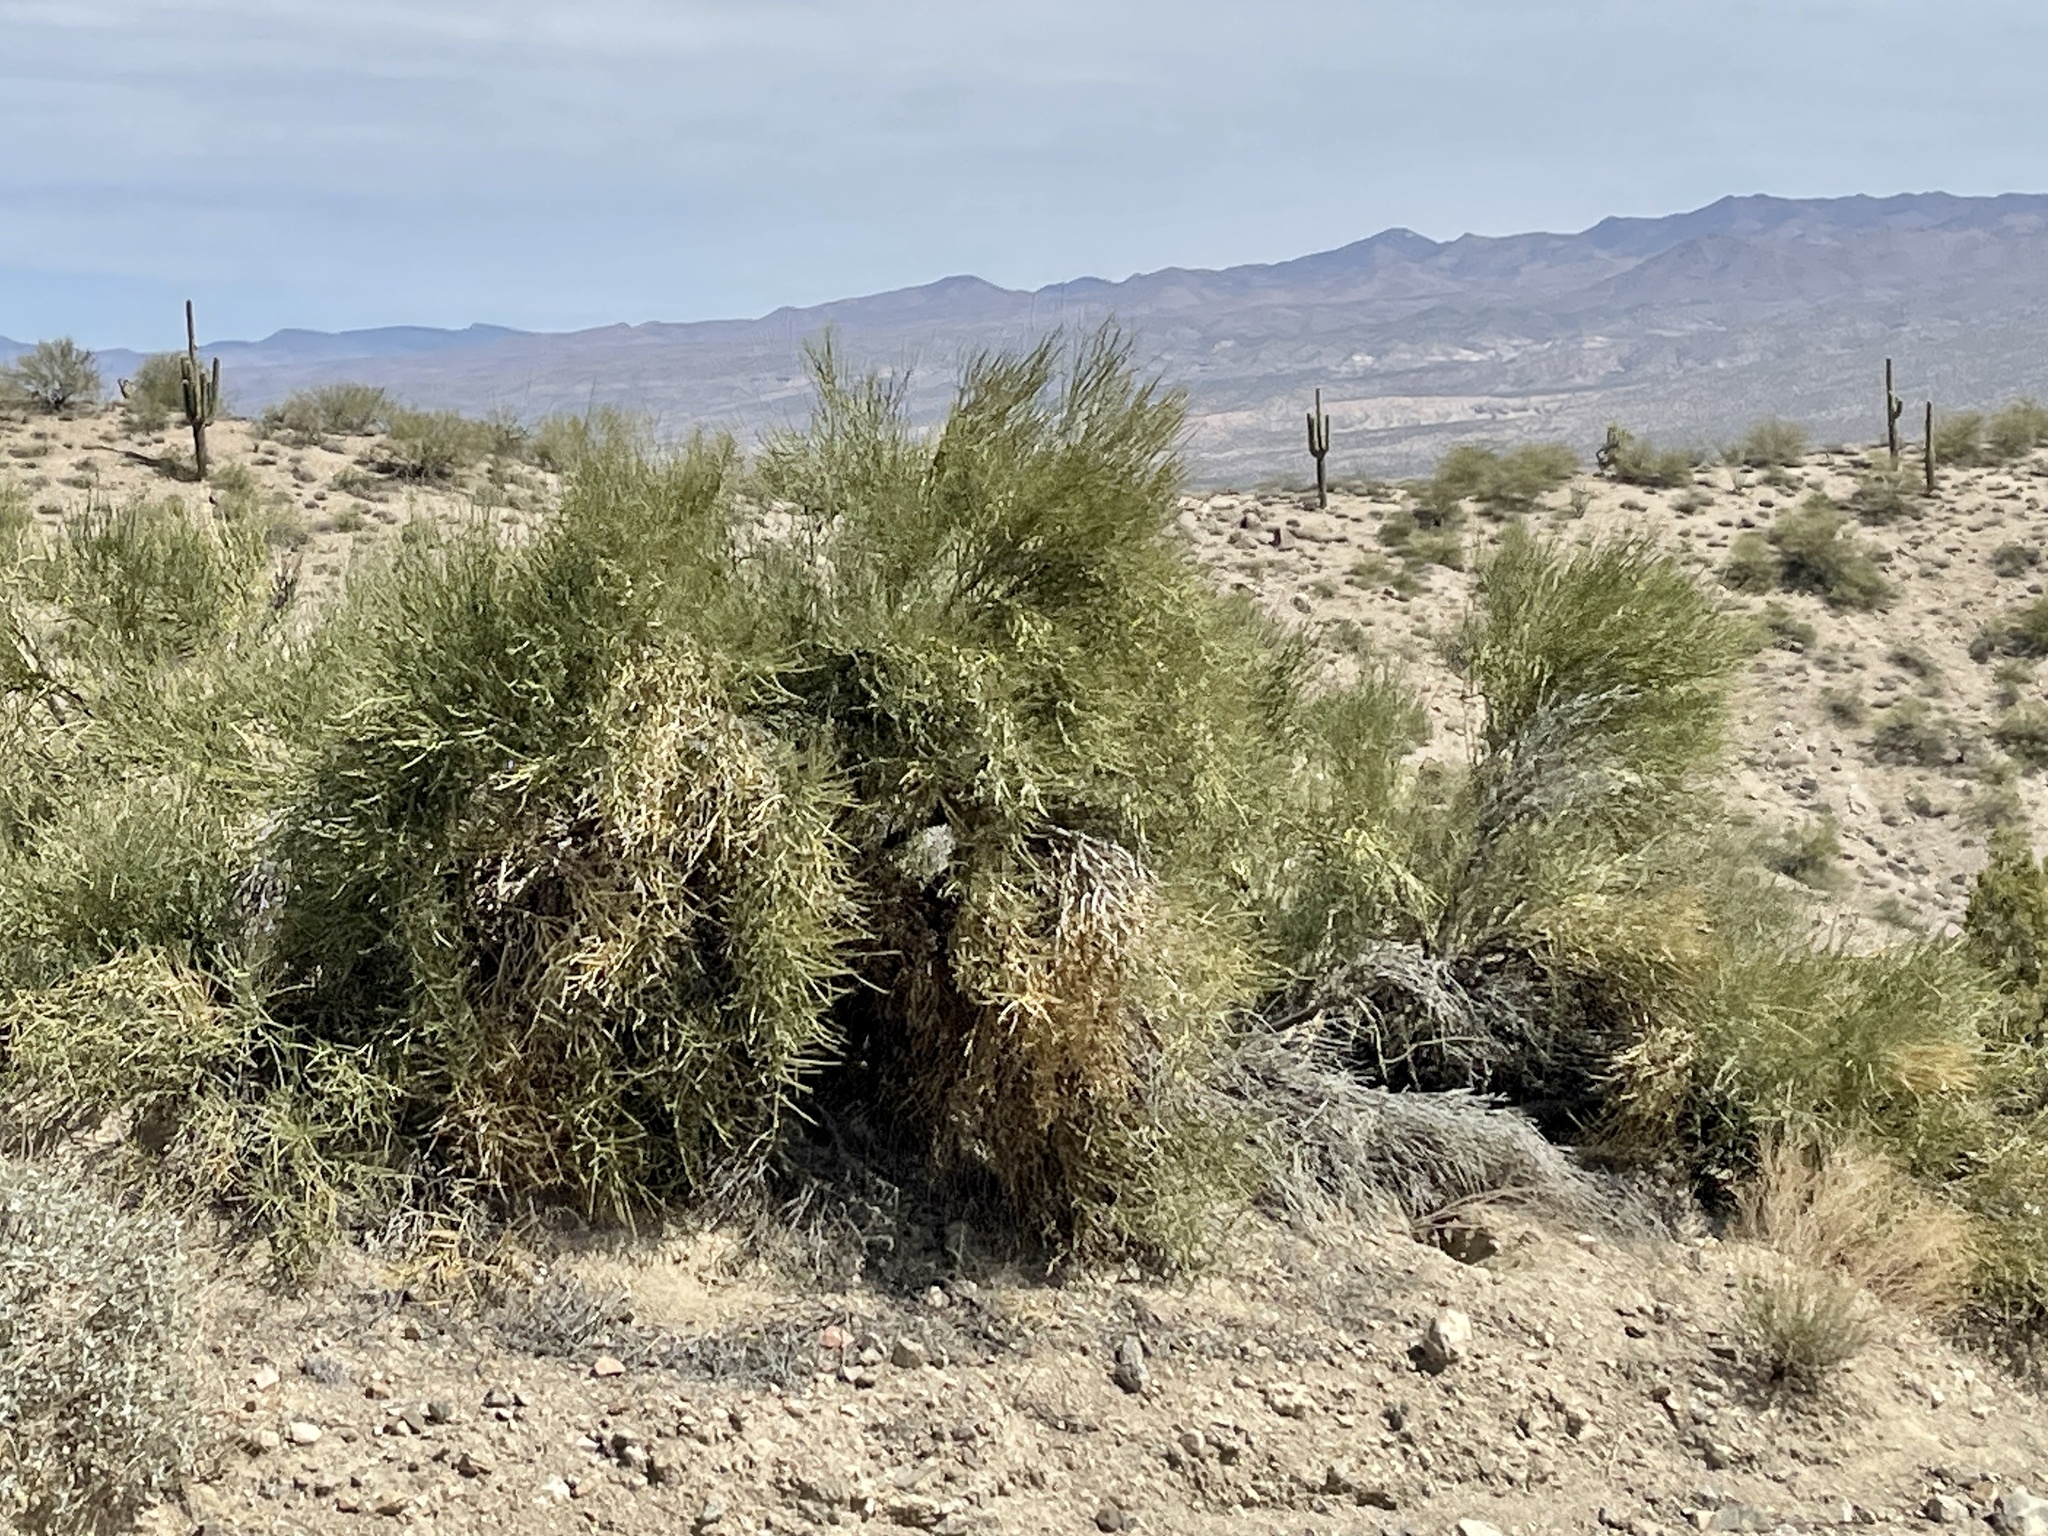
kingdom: Plantae
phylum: Tracheophyta
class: Magnoliopsida
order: Celastrales
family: Celastraceae
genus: Canotia
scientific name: Canotia holacantha
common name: Crucifixion thorns
